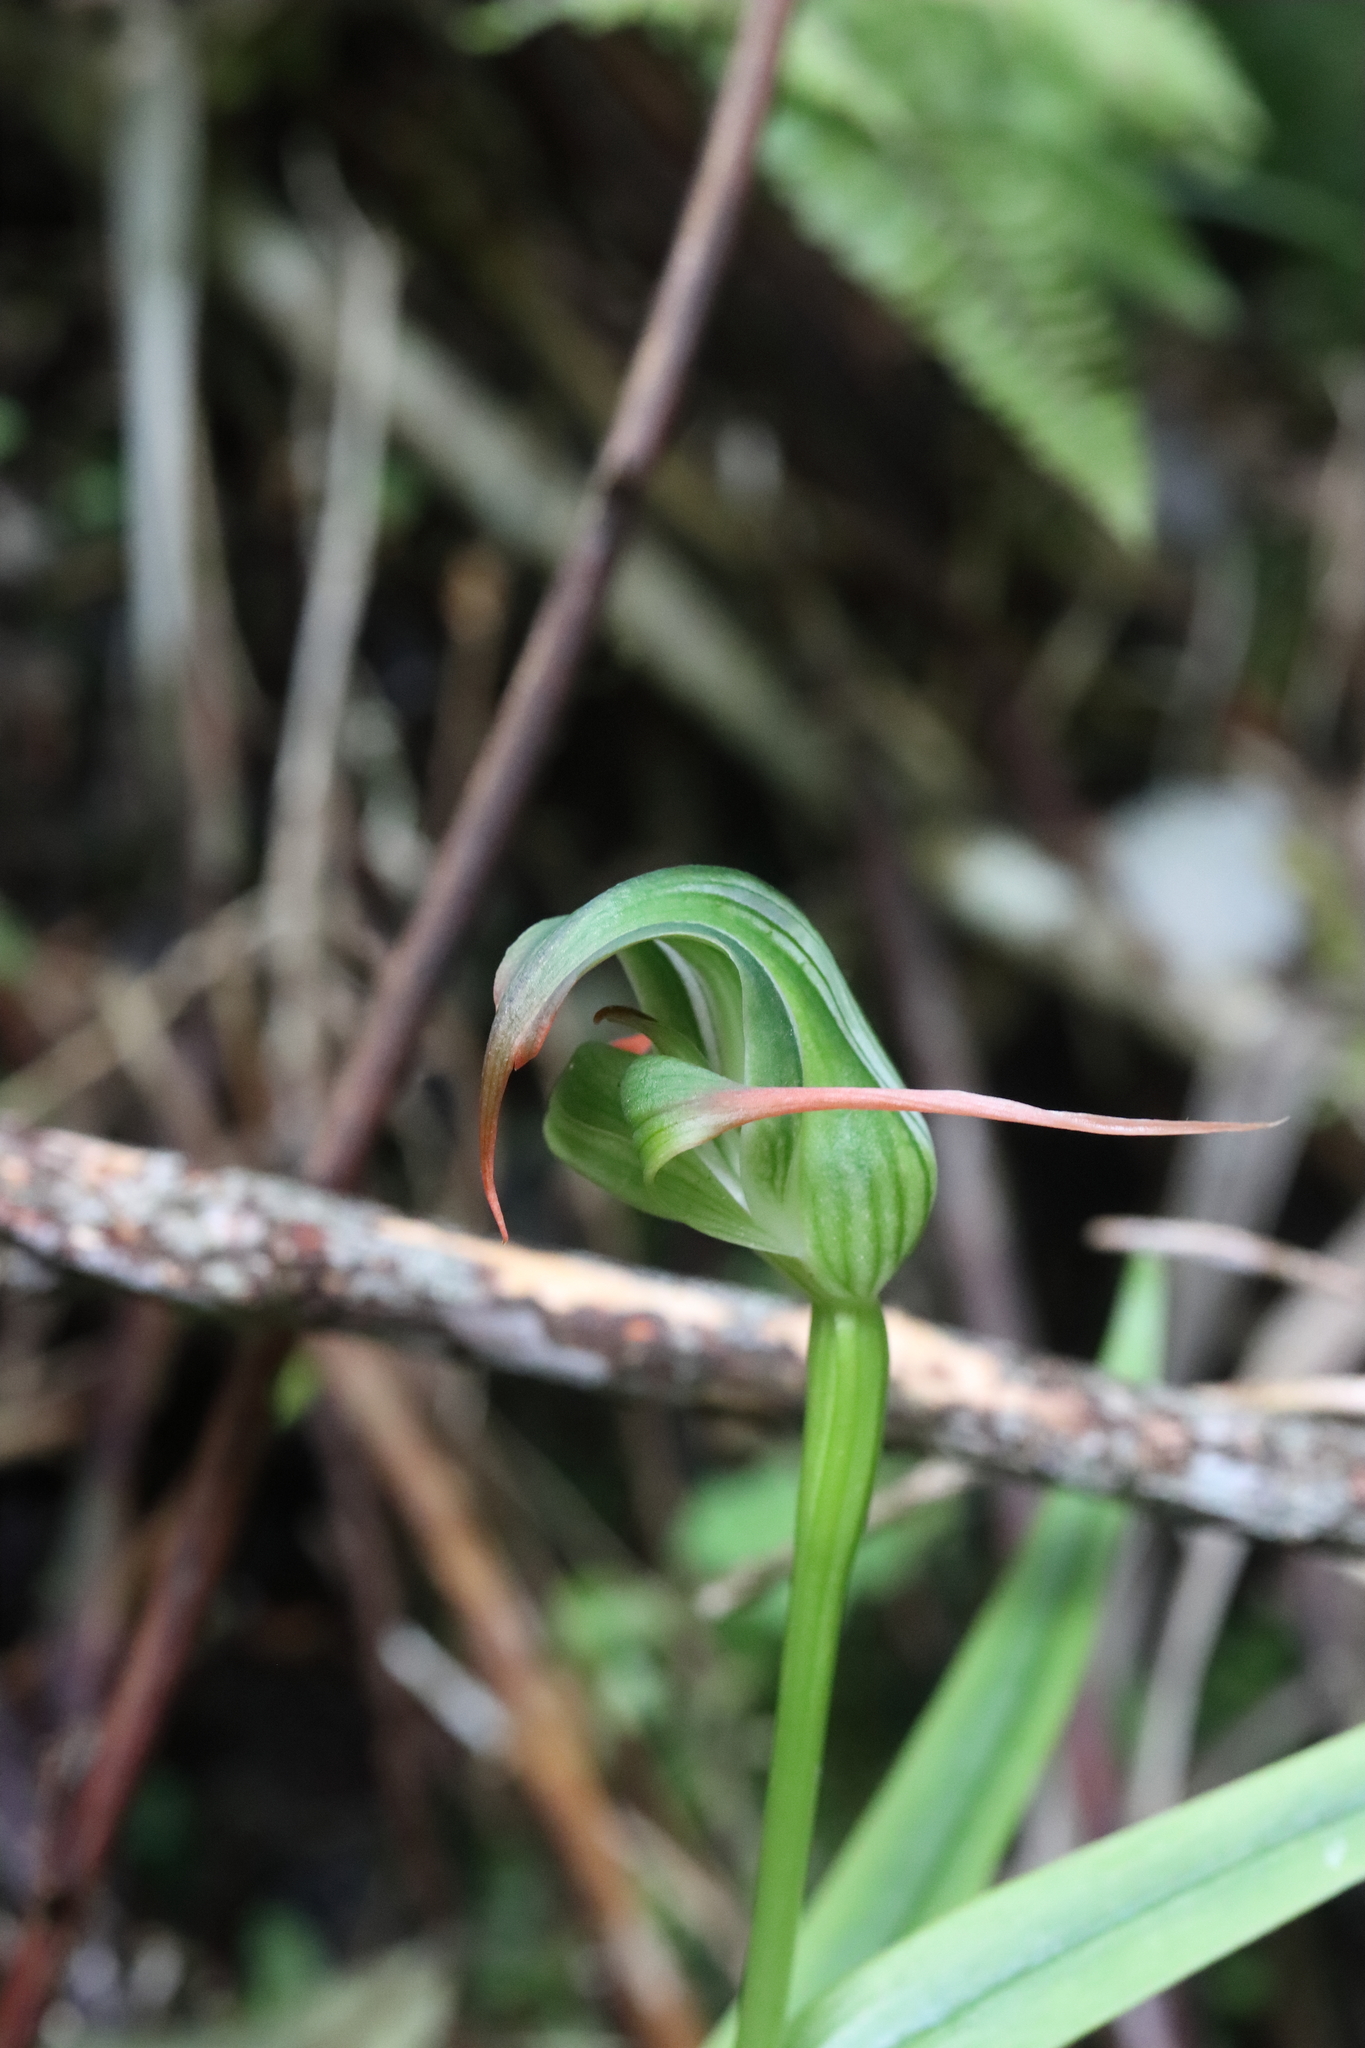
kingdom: Plantae
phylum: Tracheophyta
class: Liliopsida
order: Asparagales
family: Orchidaceae
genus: Pterostylis
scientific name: Pterostylis patens
